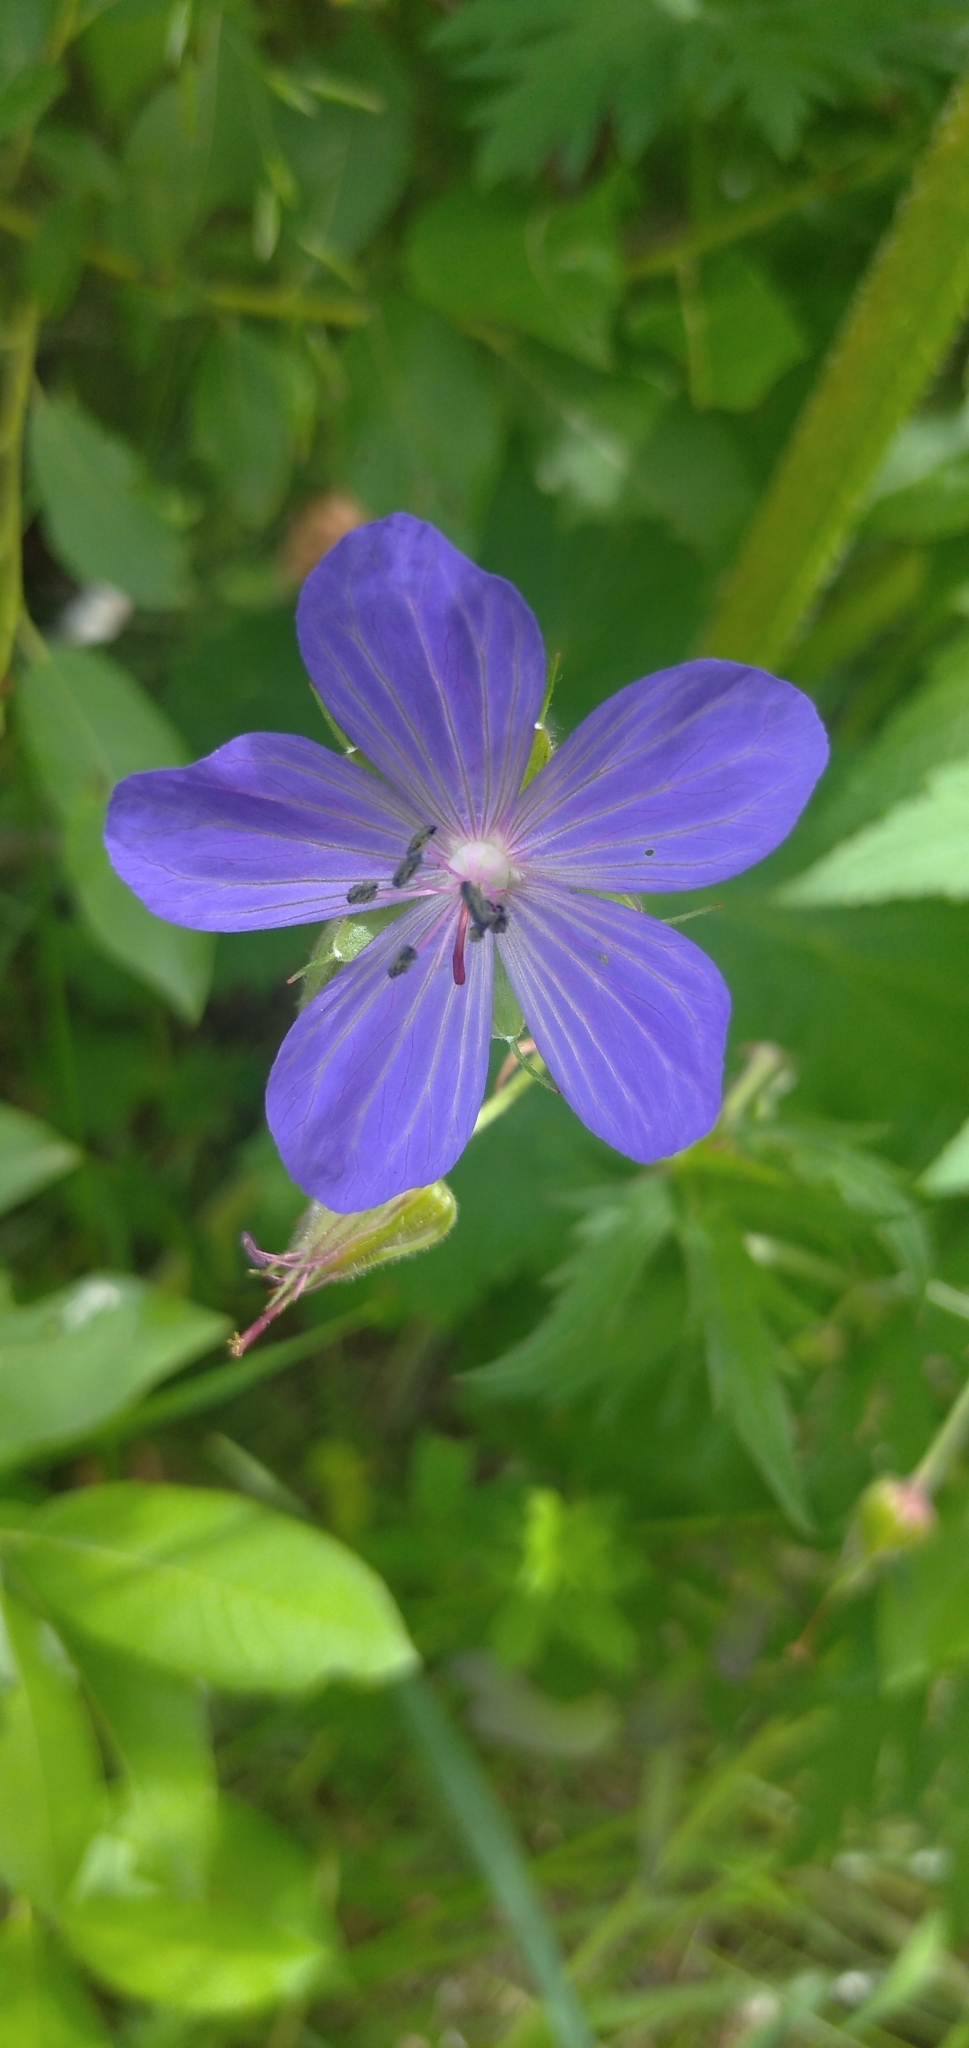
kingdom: Plantae
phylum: Tracheophyta
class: Magnoliopsida
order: Geraniales
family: Geraniaceae
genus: Geranium
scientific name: Geranium pratense
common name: Meadow crane's-bill
